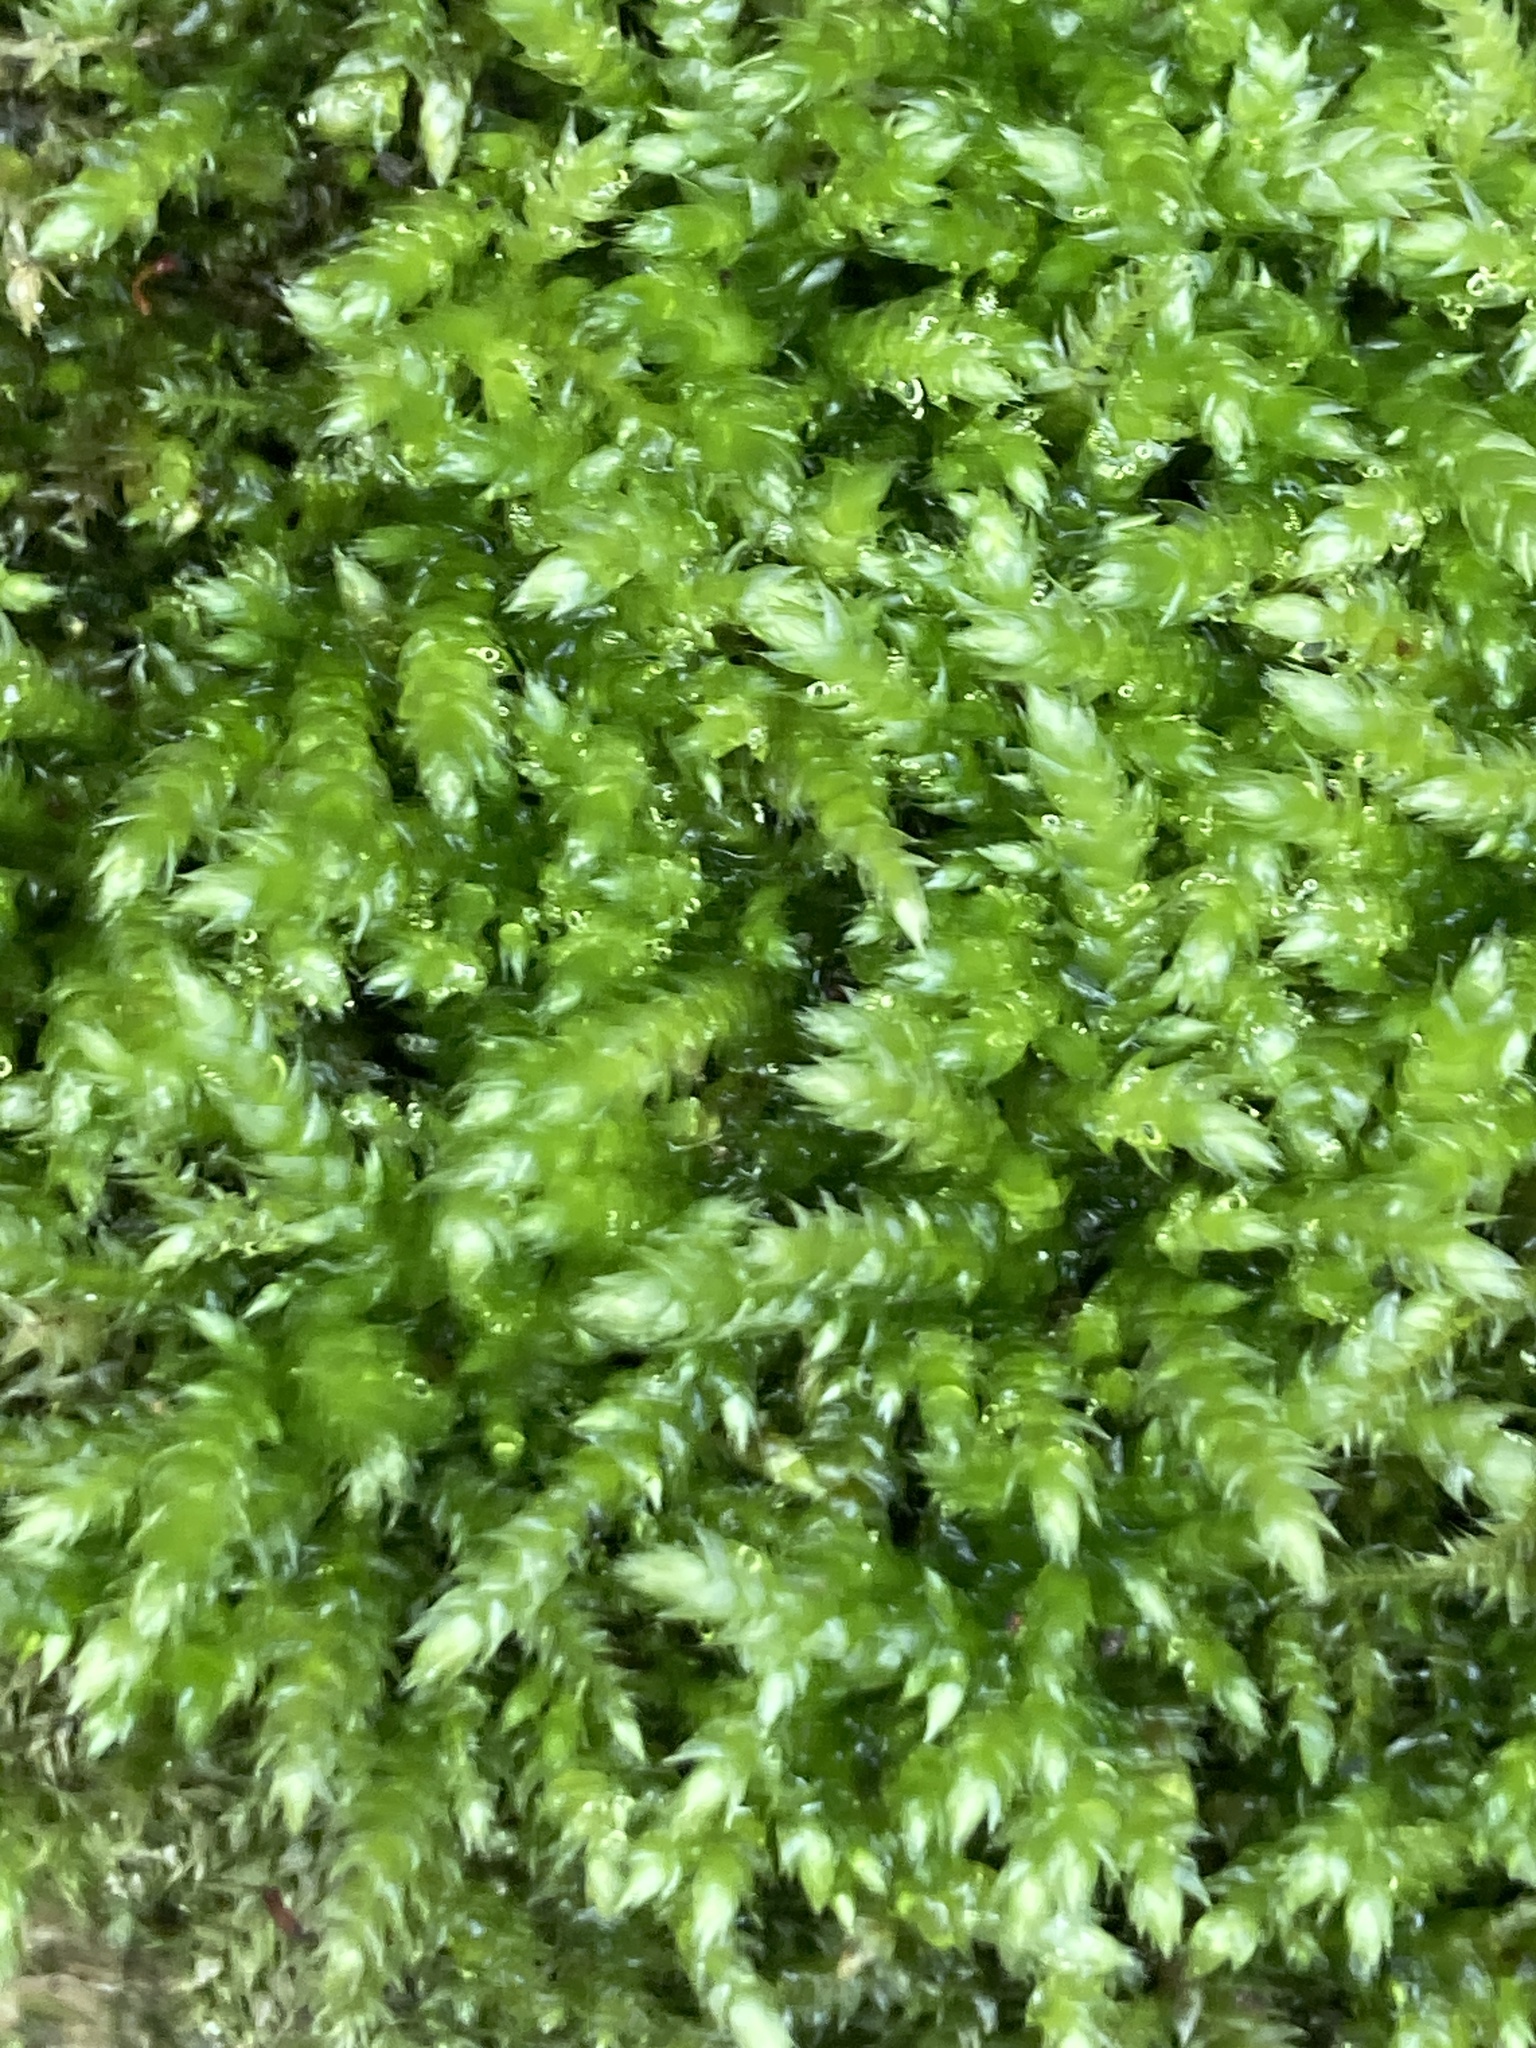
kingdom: Plantae
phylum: Bryophyta
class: Bryopsida
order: Hypnales
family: Brachytheciaceae
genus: Brachythecium
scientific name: Brachythecium rutabulum
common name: Rough-stalked feather-moss
